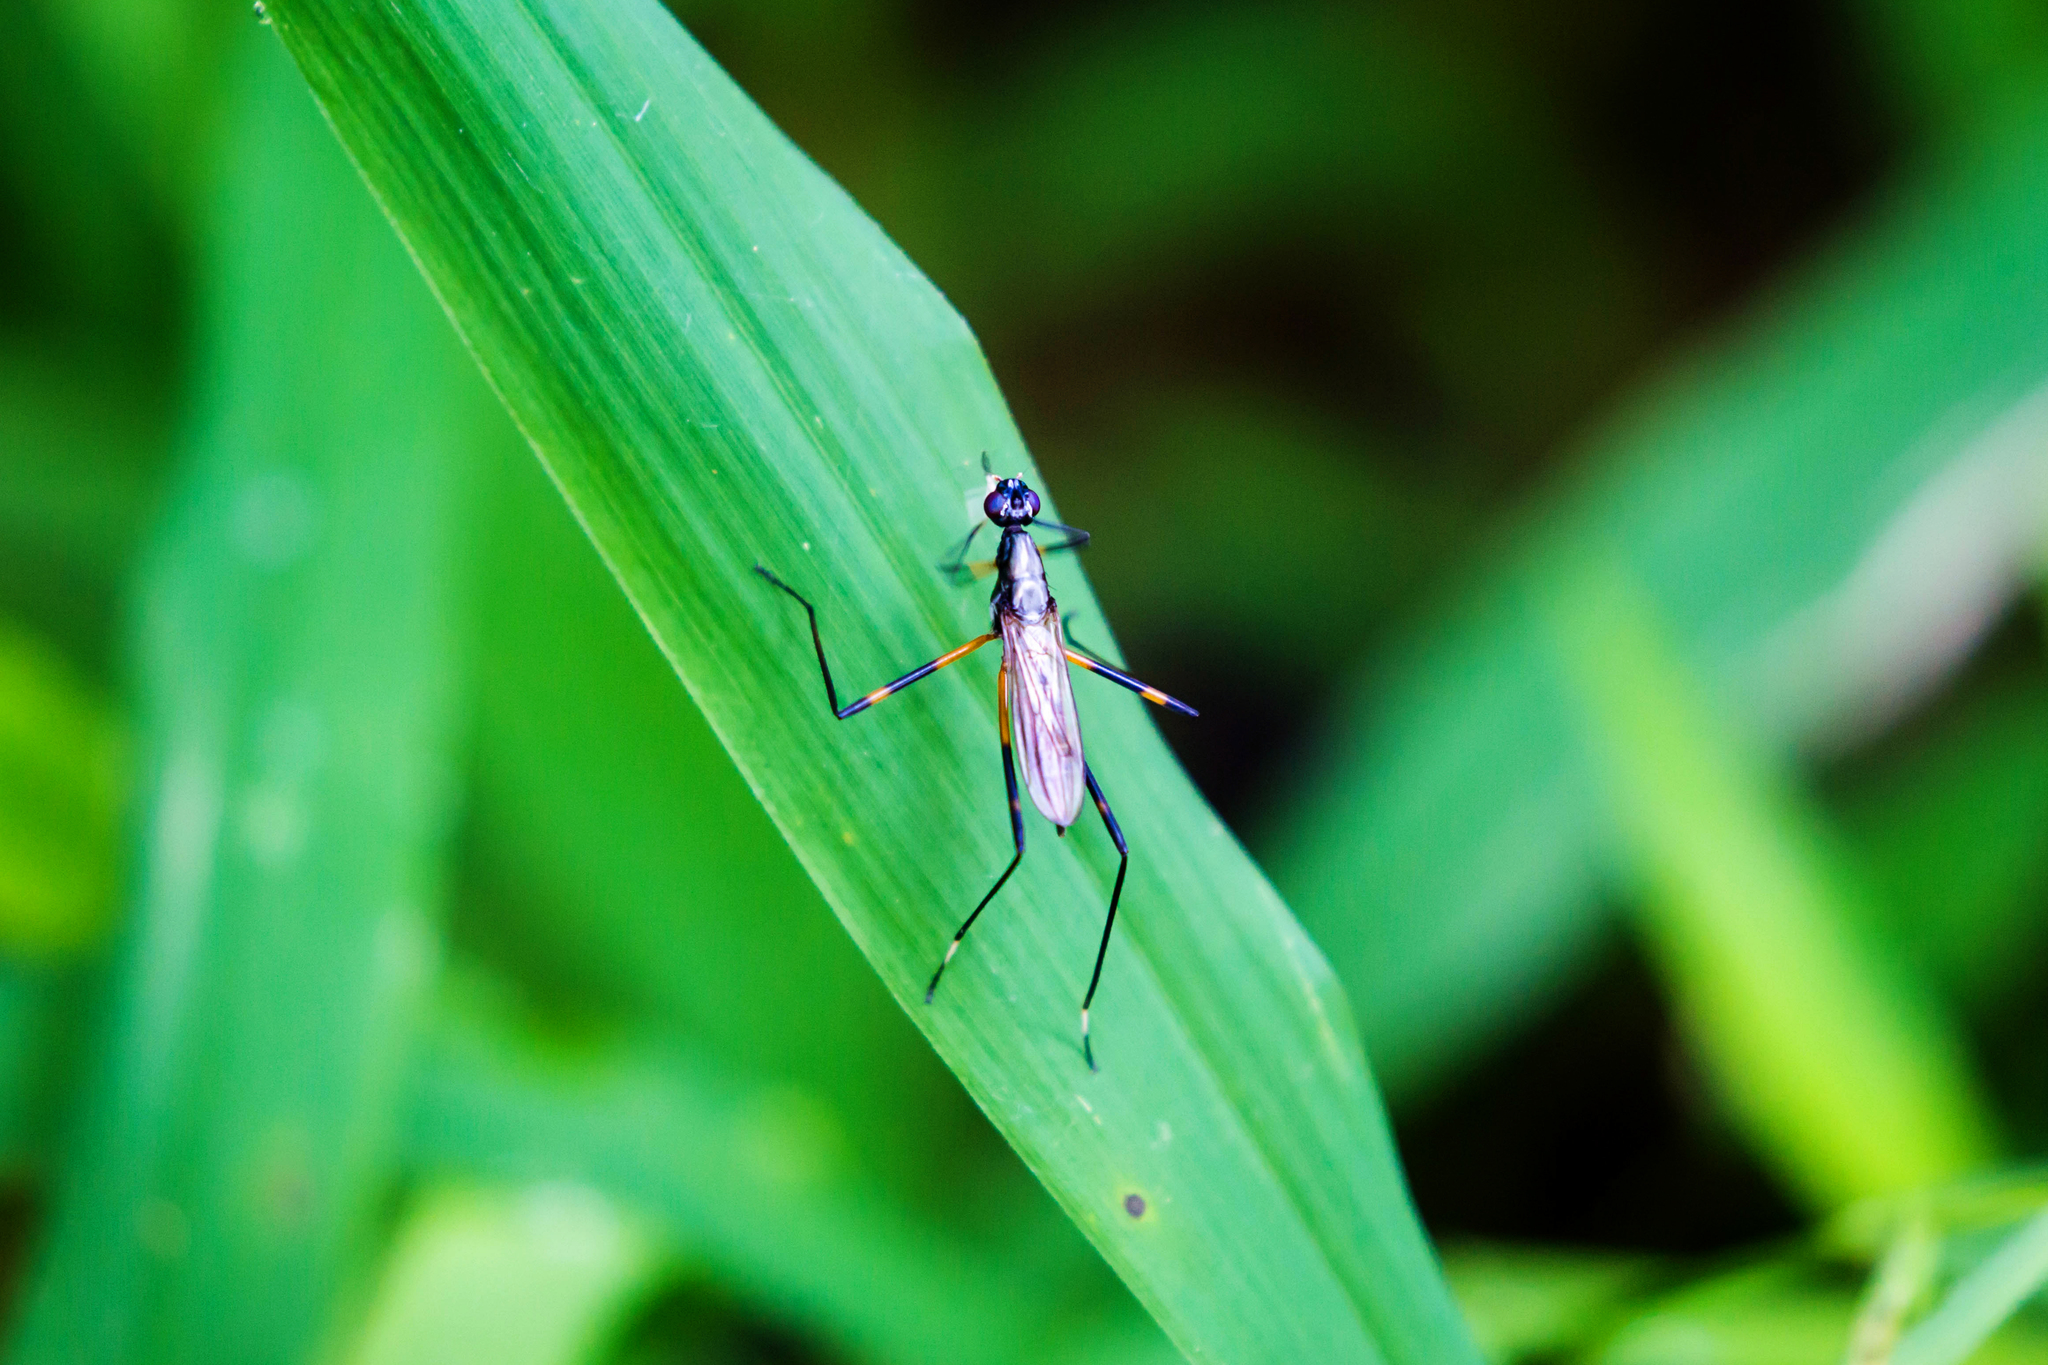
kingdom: Animalia
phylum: Arthropoda
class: Insecta
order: Diptera
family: Micropezidae
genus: Rainieria
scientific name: Rainieria antennaepes
